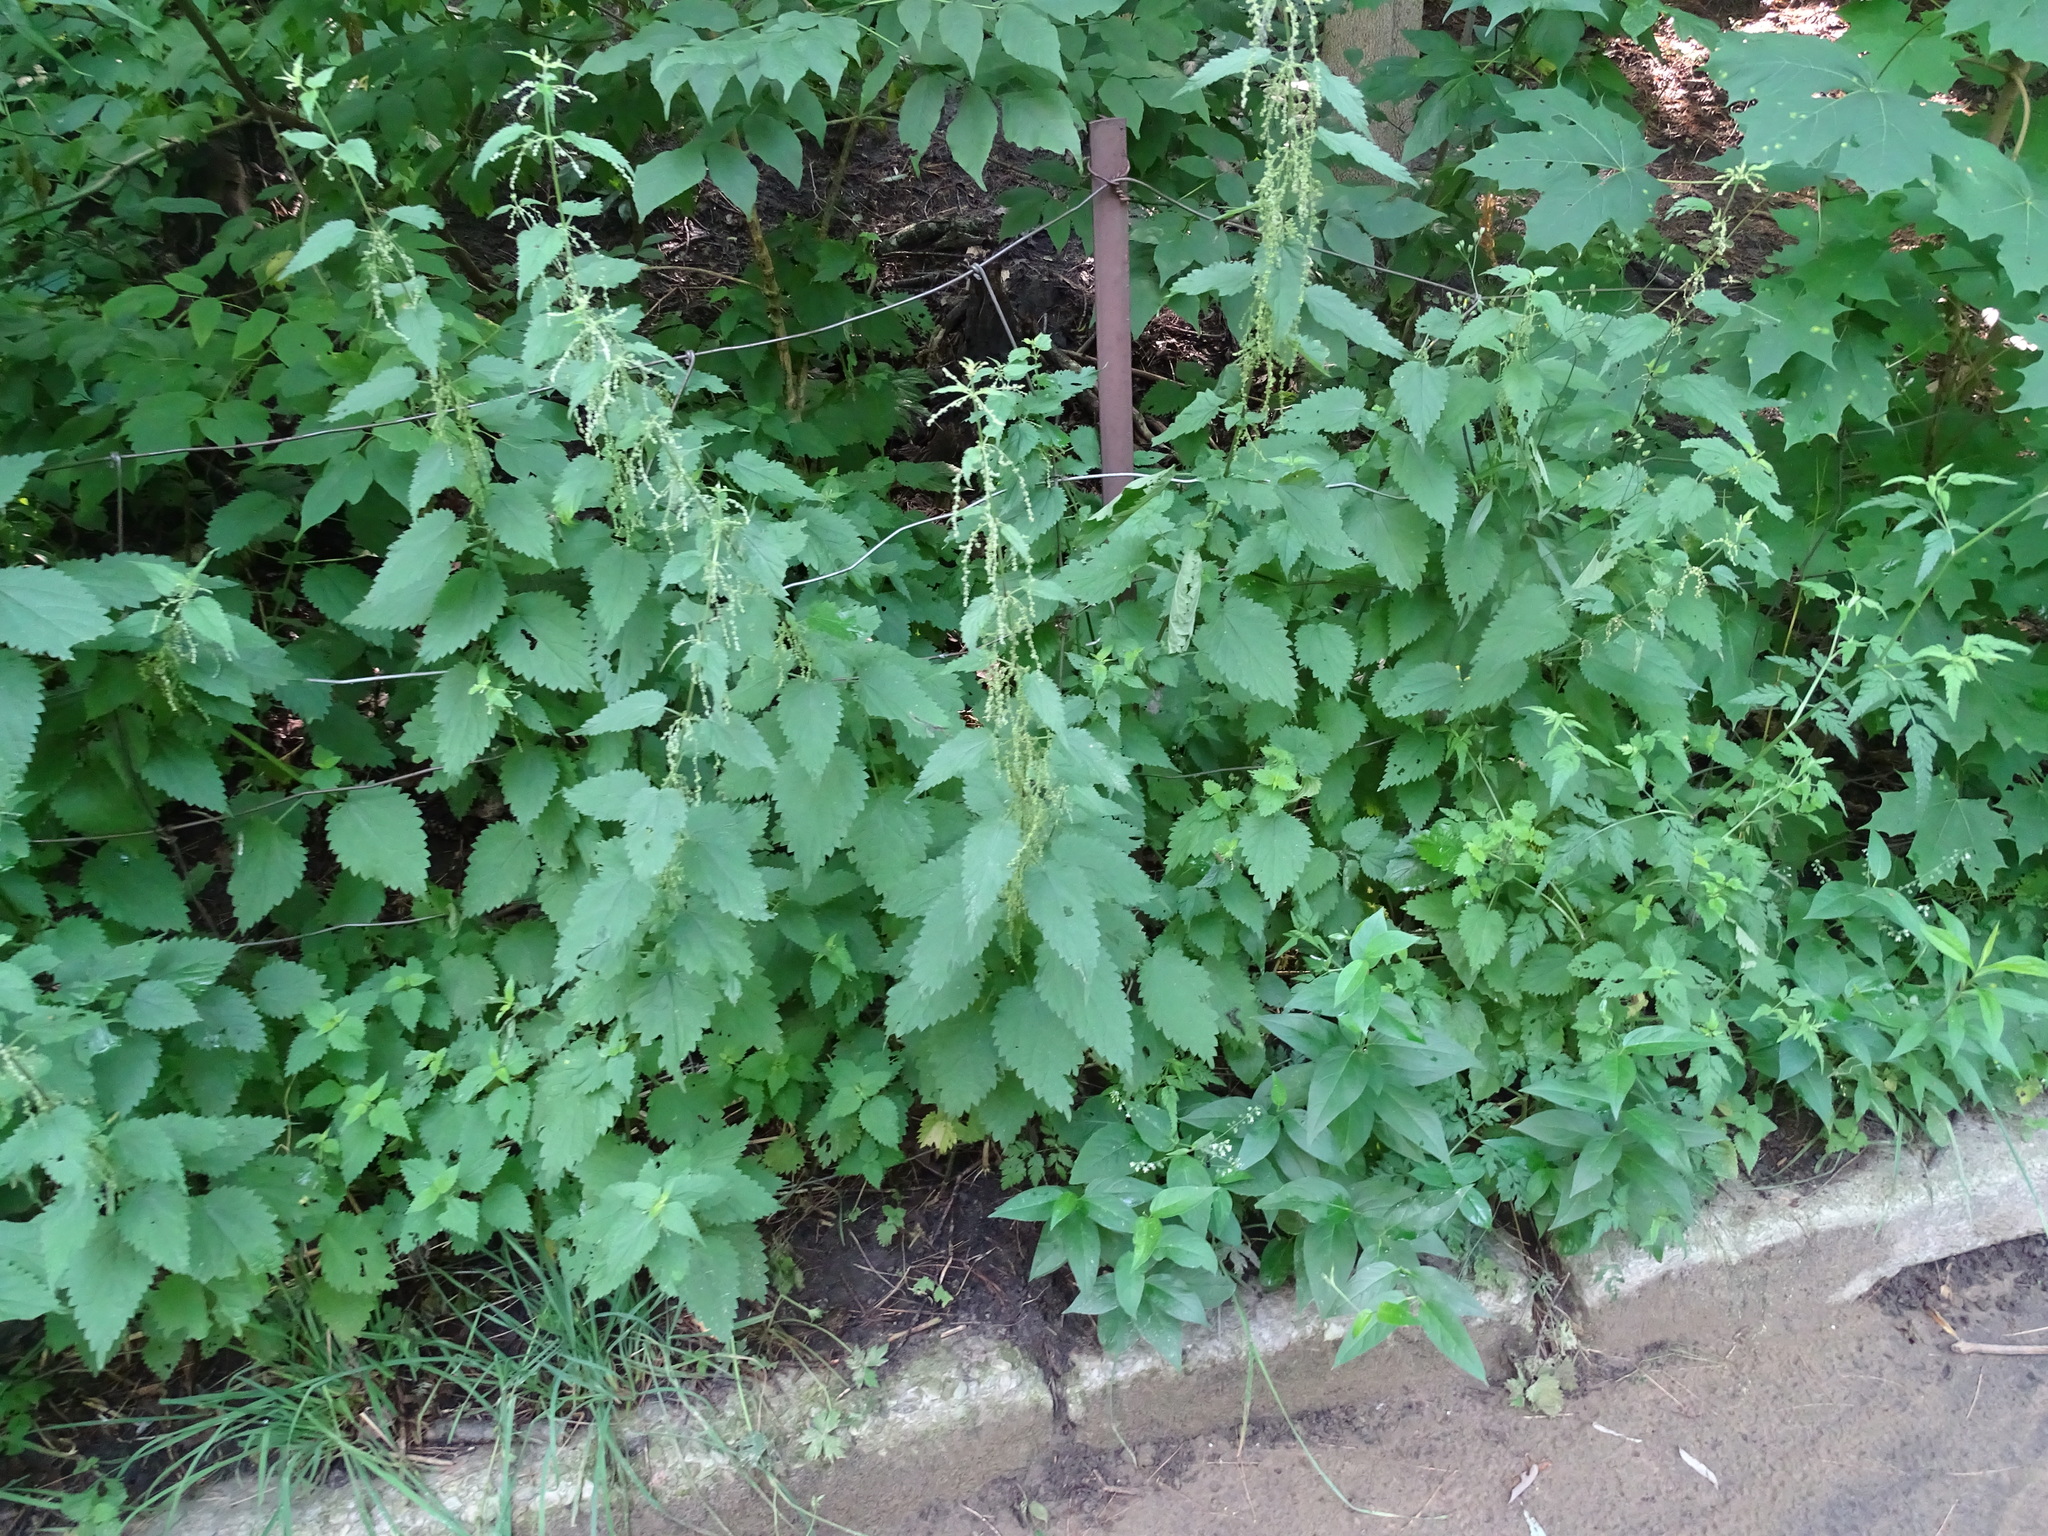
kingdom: Plantae
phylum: Tracheophyta
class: Magnoliopsida
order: Rosales
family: Urticaceae
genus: Urtica
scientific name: Urtica dioica
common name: Common nettle
